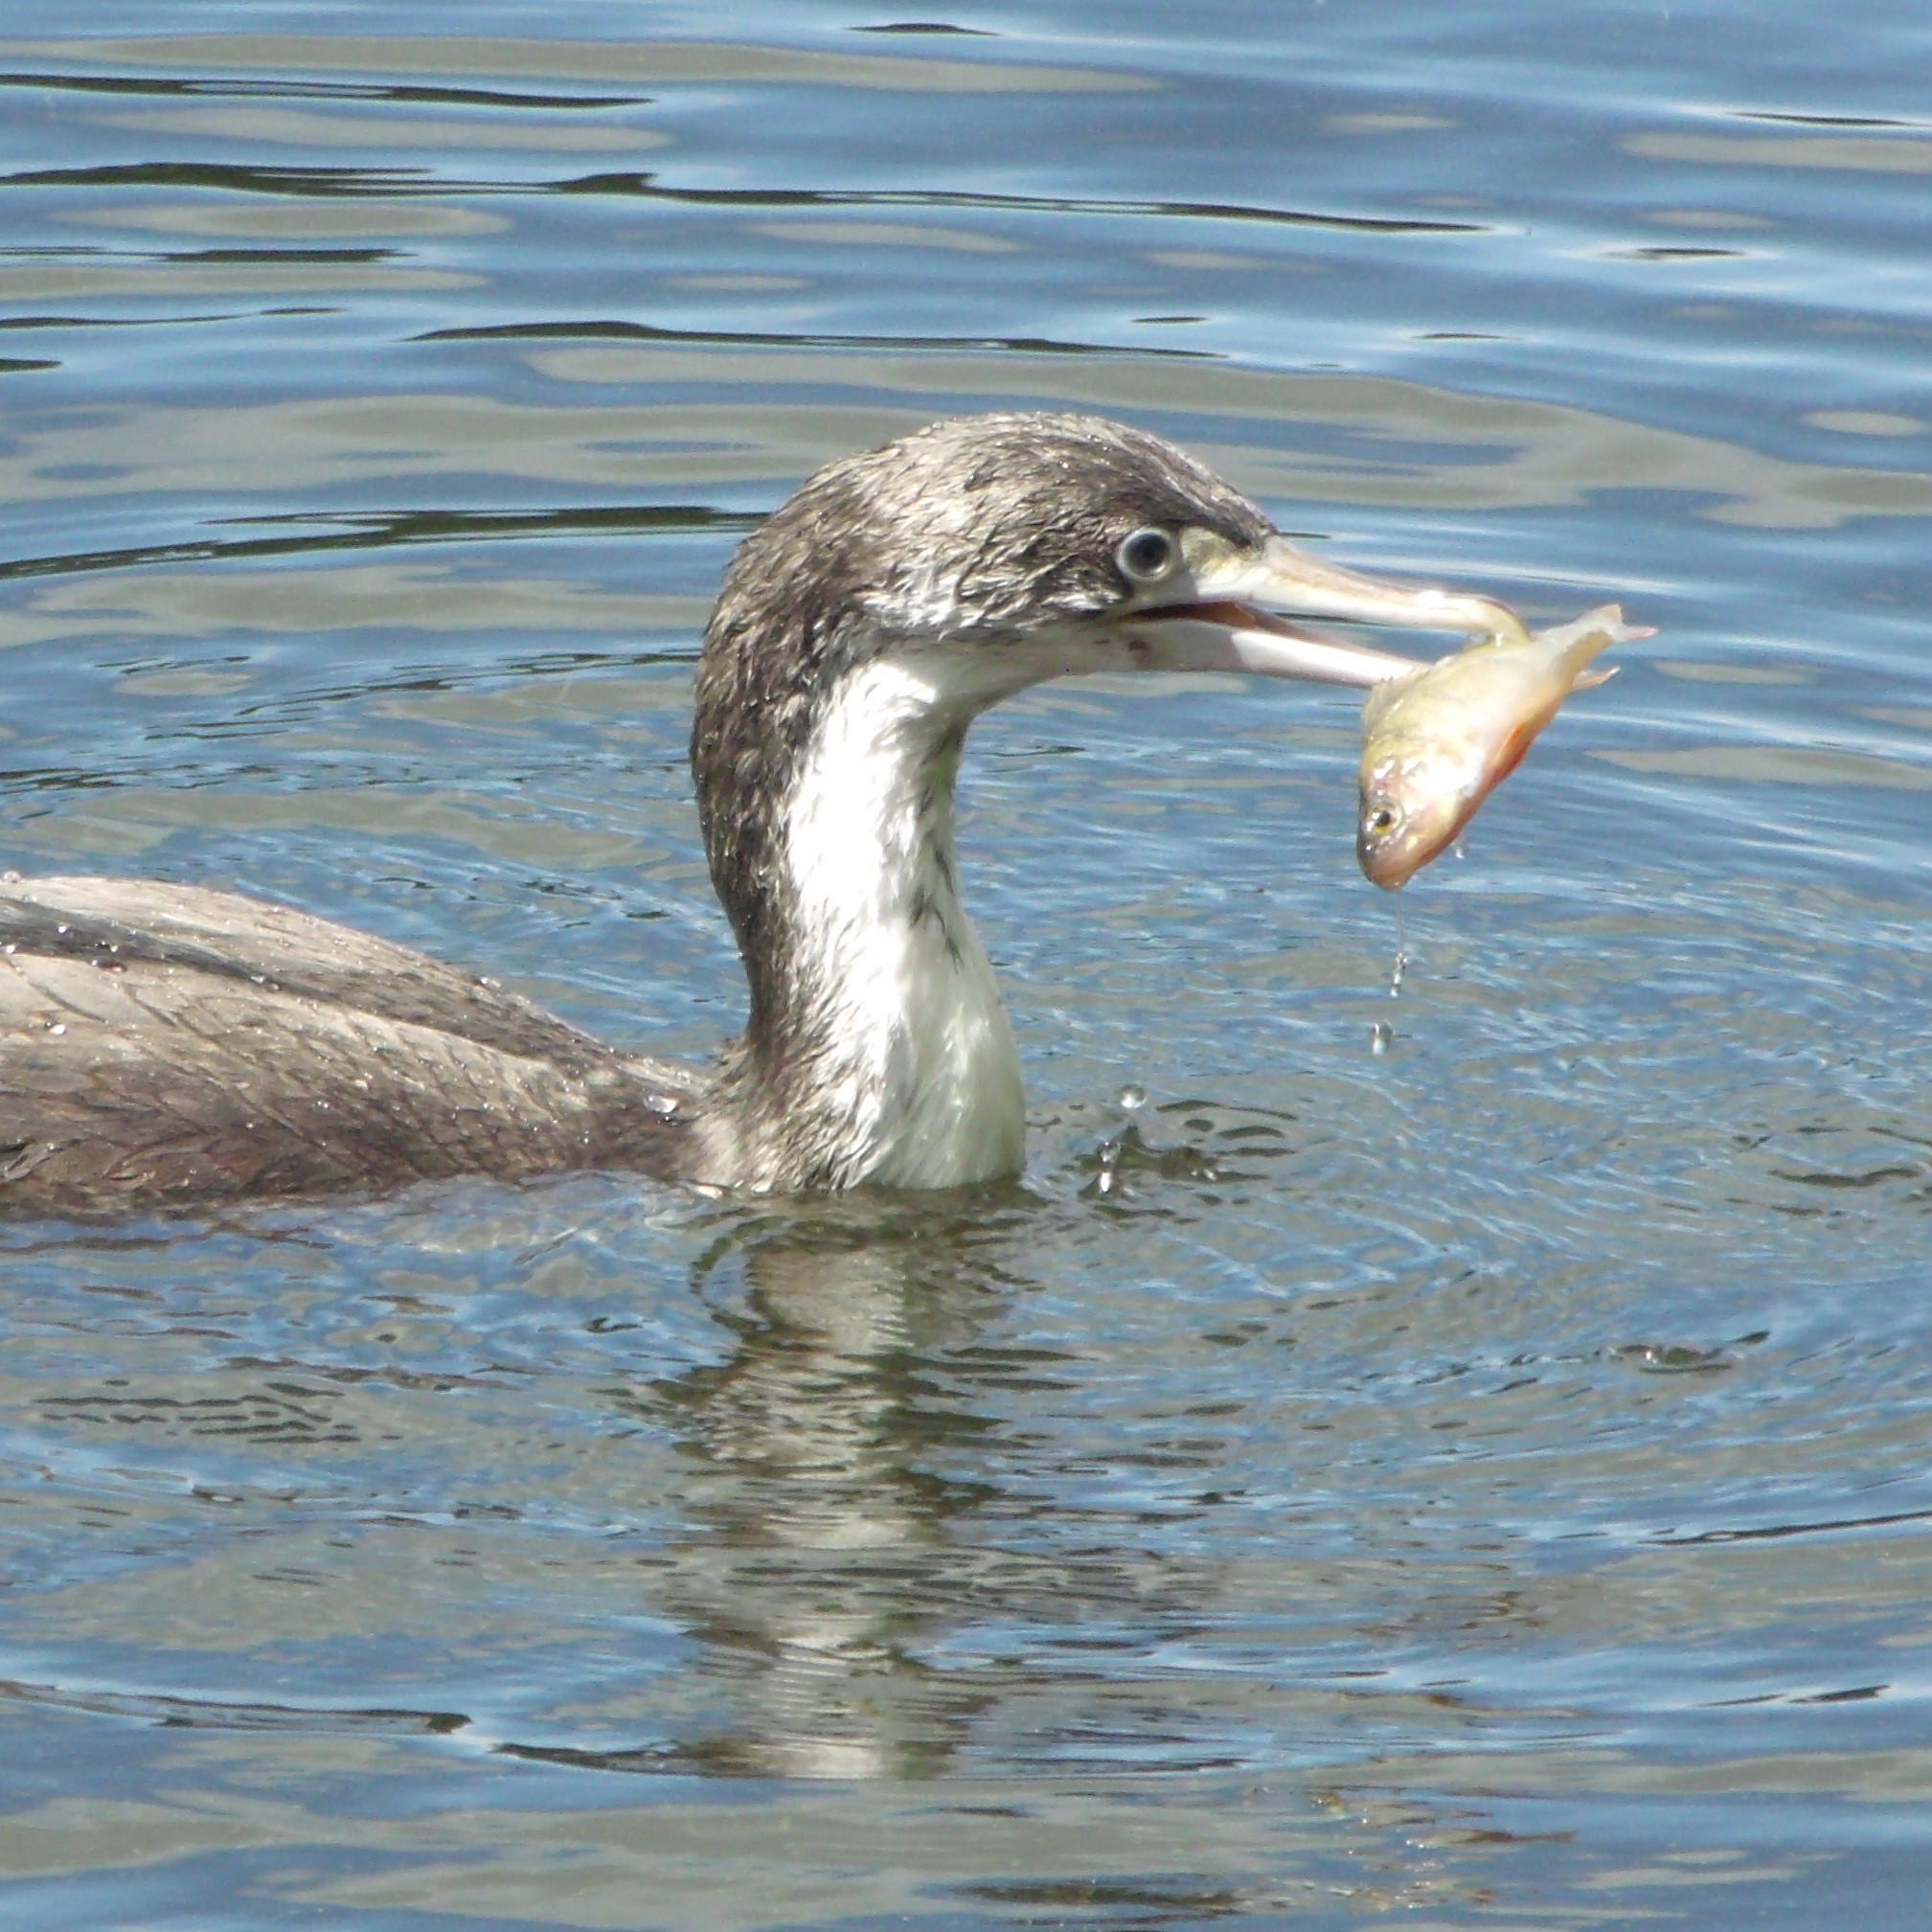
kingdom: Animalia
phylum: Chordata
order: Perciformes
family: Percidae
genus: Perca
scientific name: Perca fluviatilis
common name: Perch
